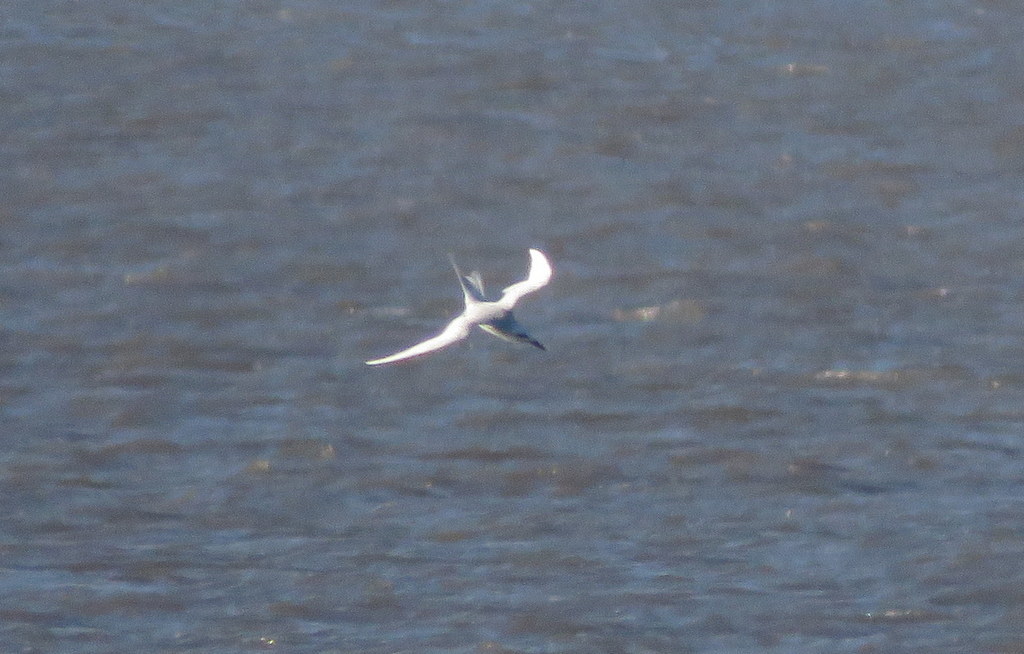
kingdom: Animalia
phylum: Chordata
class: Aves
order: Charadriiformes
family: Laridae
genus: Sterna
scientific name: Sterna trudeaui
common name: Snowy-crowned tern
